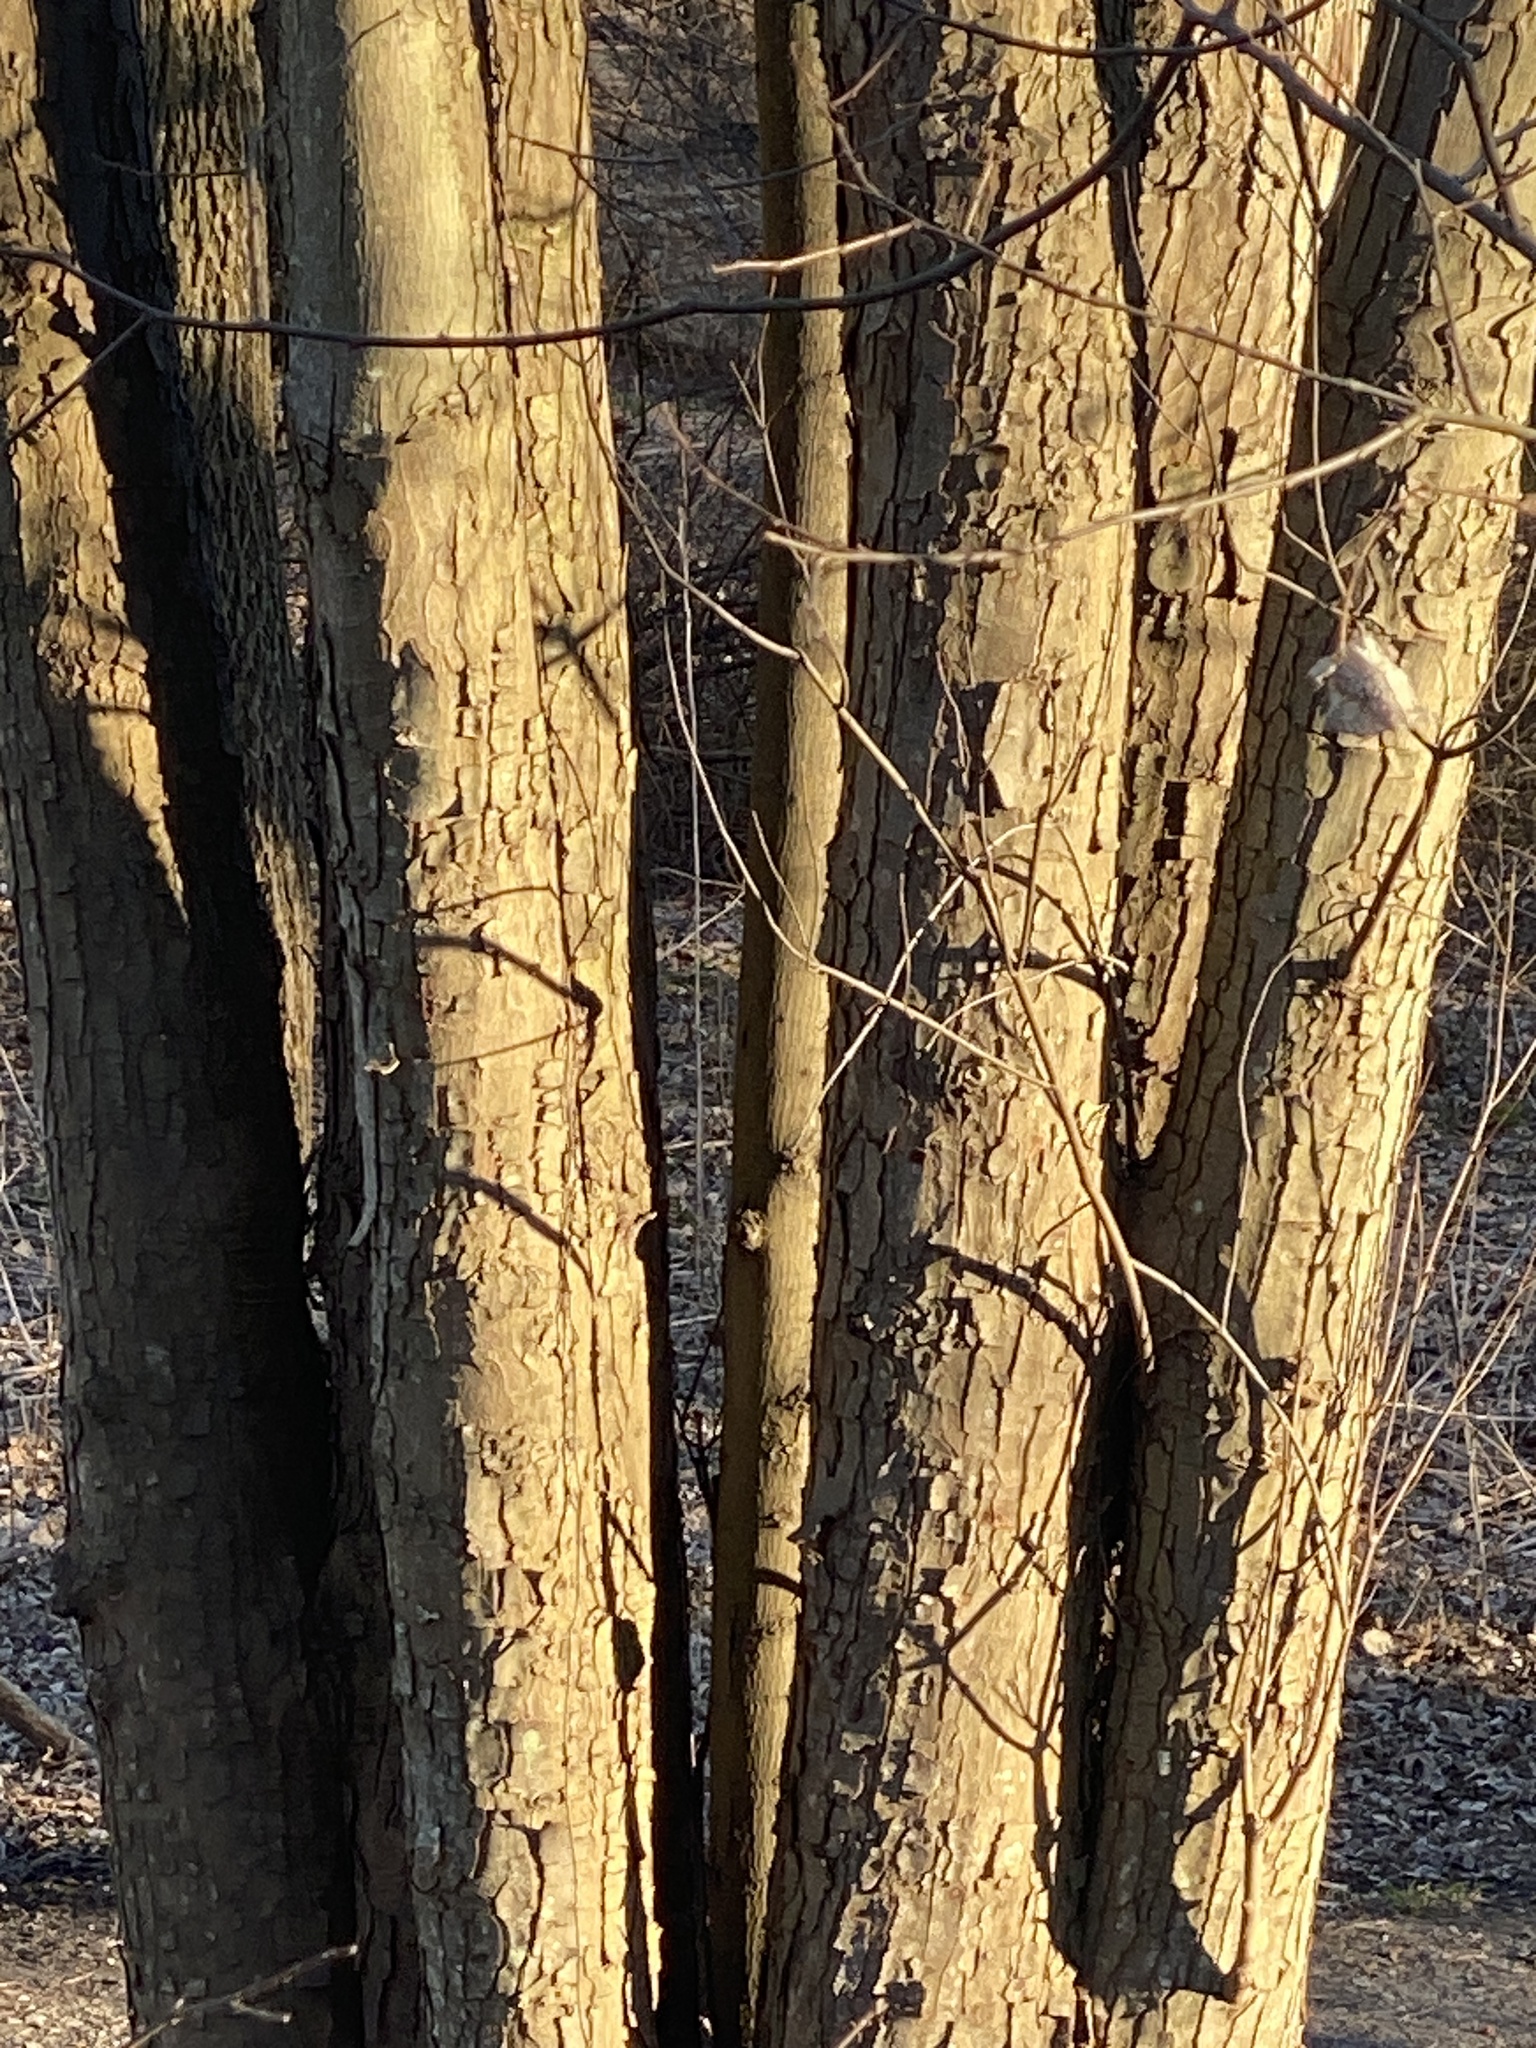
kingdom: Plantae
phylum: Tracheophyta
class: Magnoliopsida
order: Sapindales
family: Sapindaceae
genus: Acer
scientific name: Acer saccharinum
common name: Silver maple
